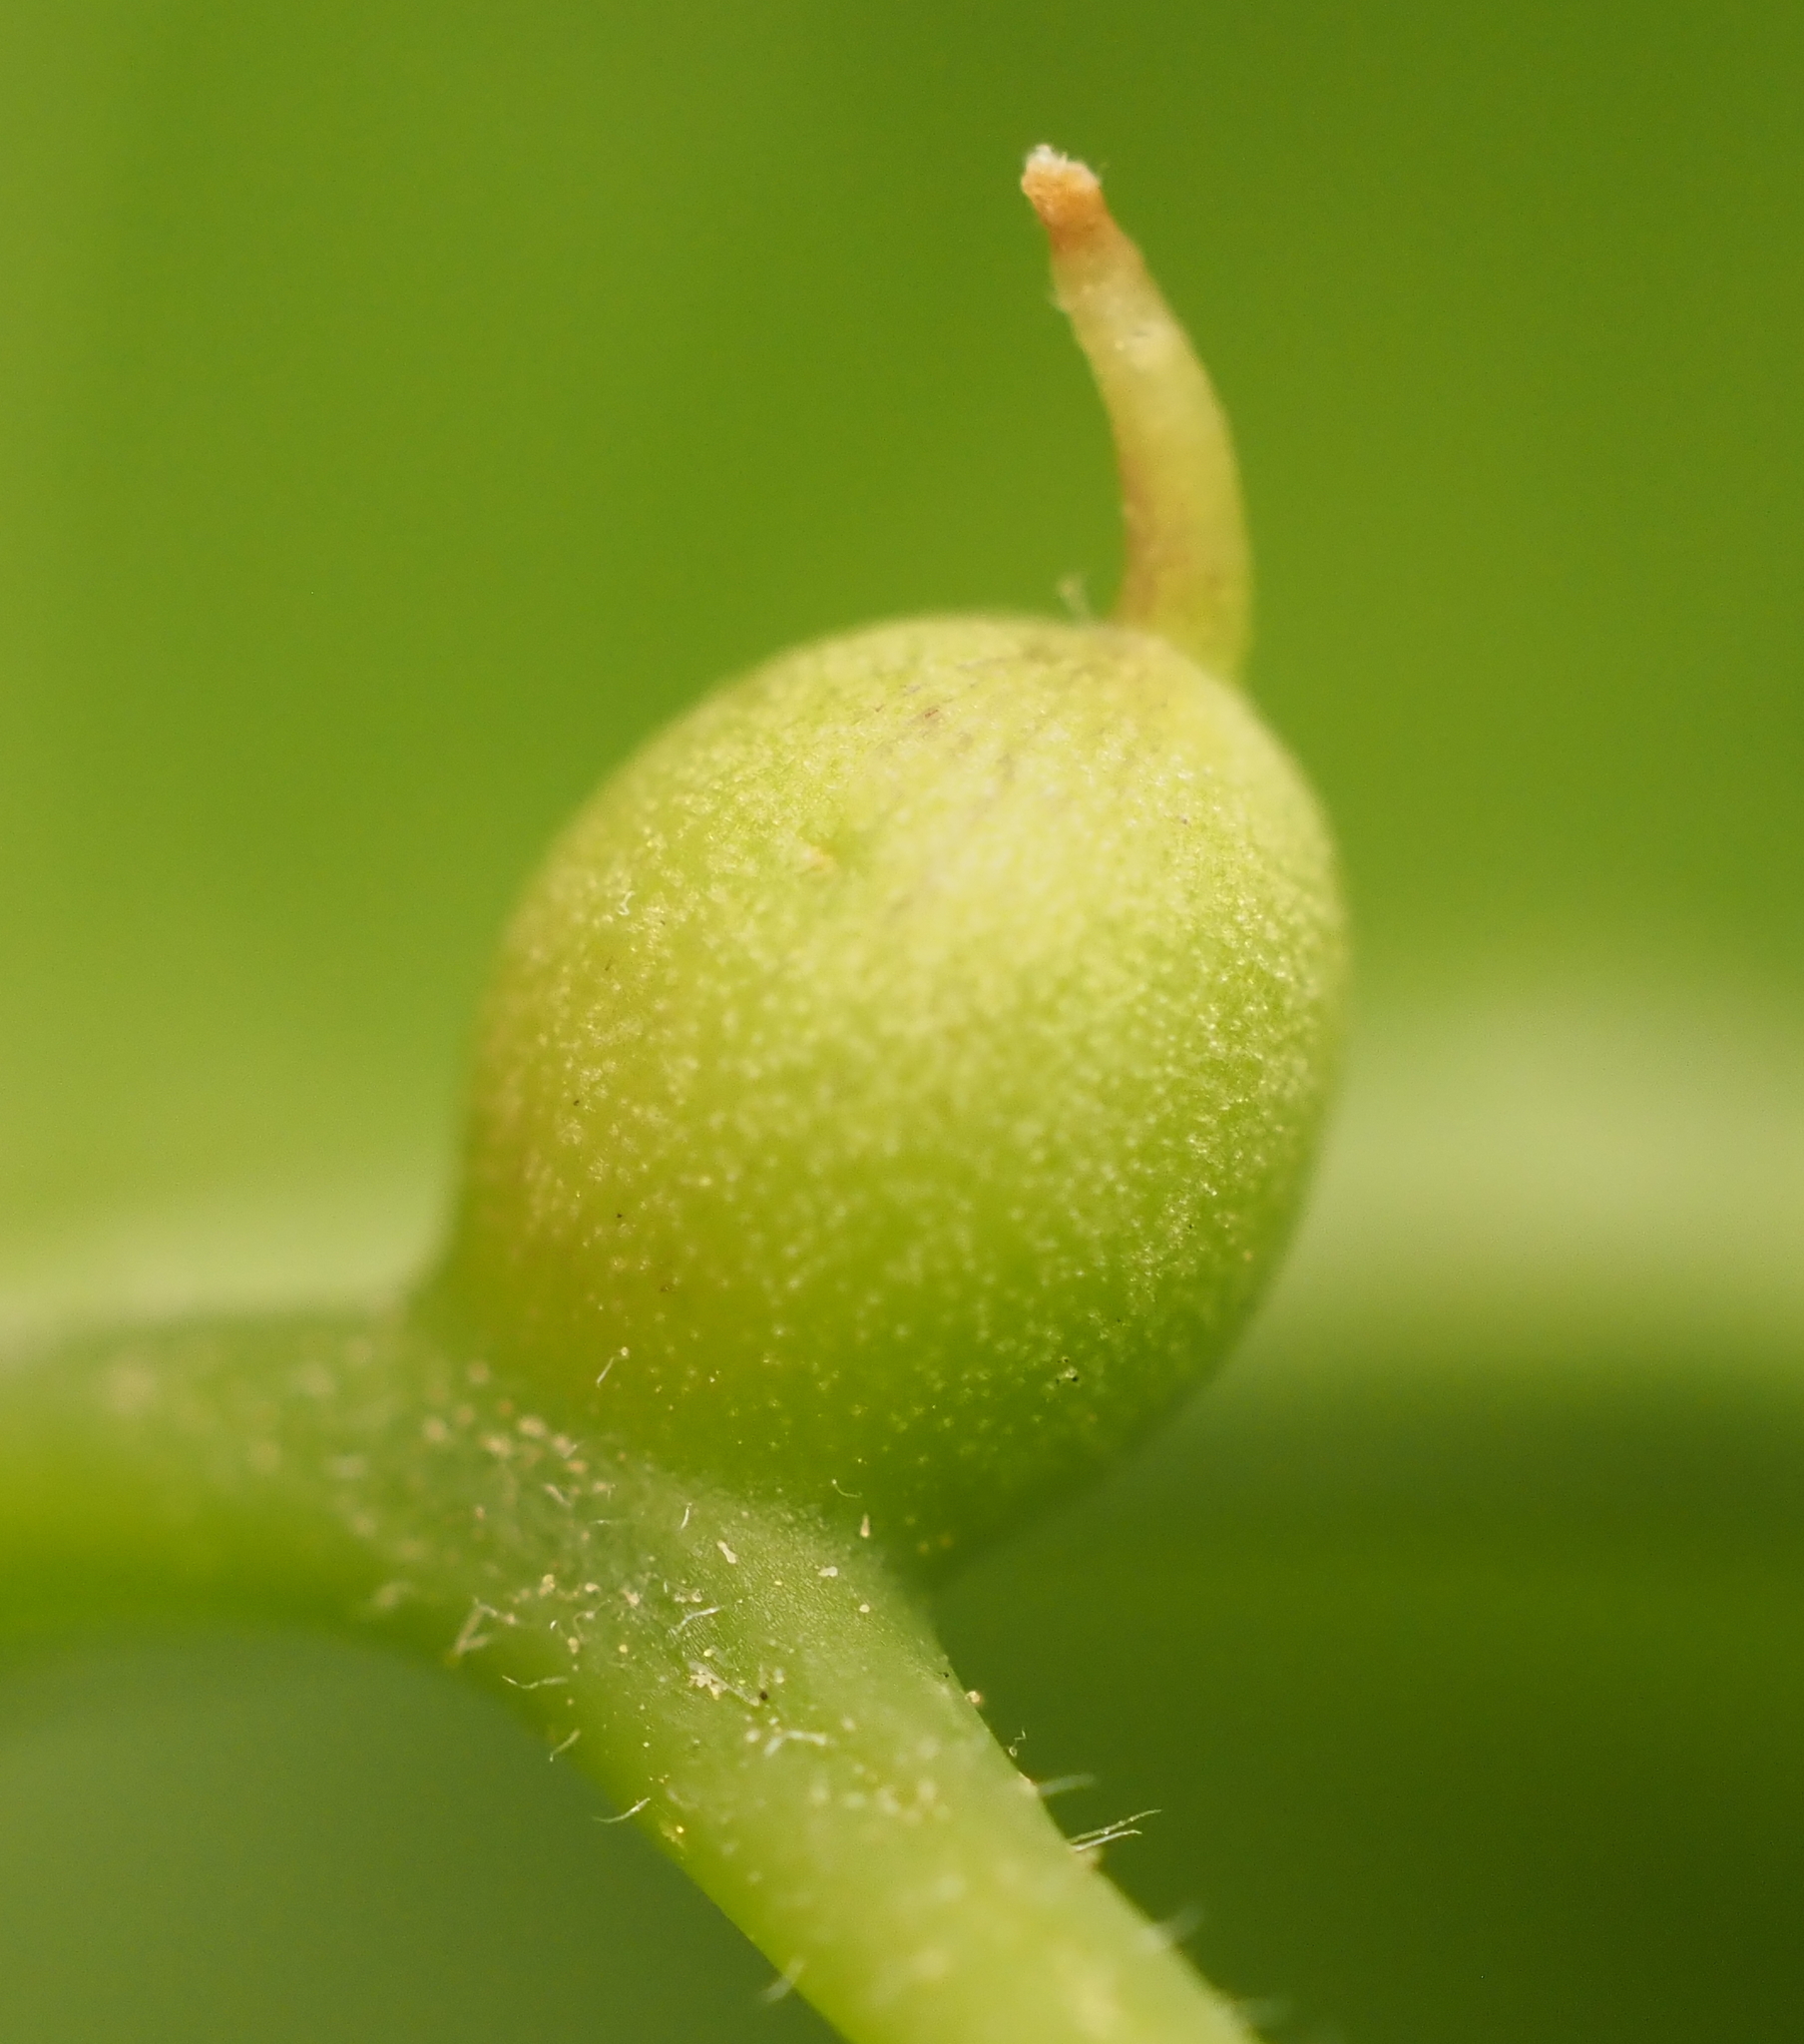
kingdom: Animalia
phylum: Arthropoda
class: Insecta
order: Diptera
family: Cecidomyiidae
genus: Celticecis
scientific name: Celticecis connata
